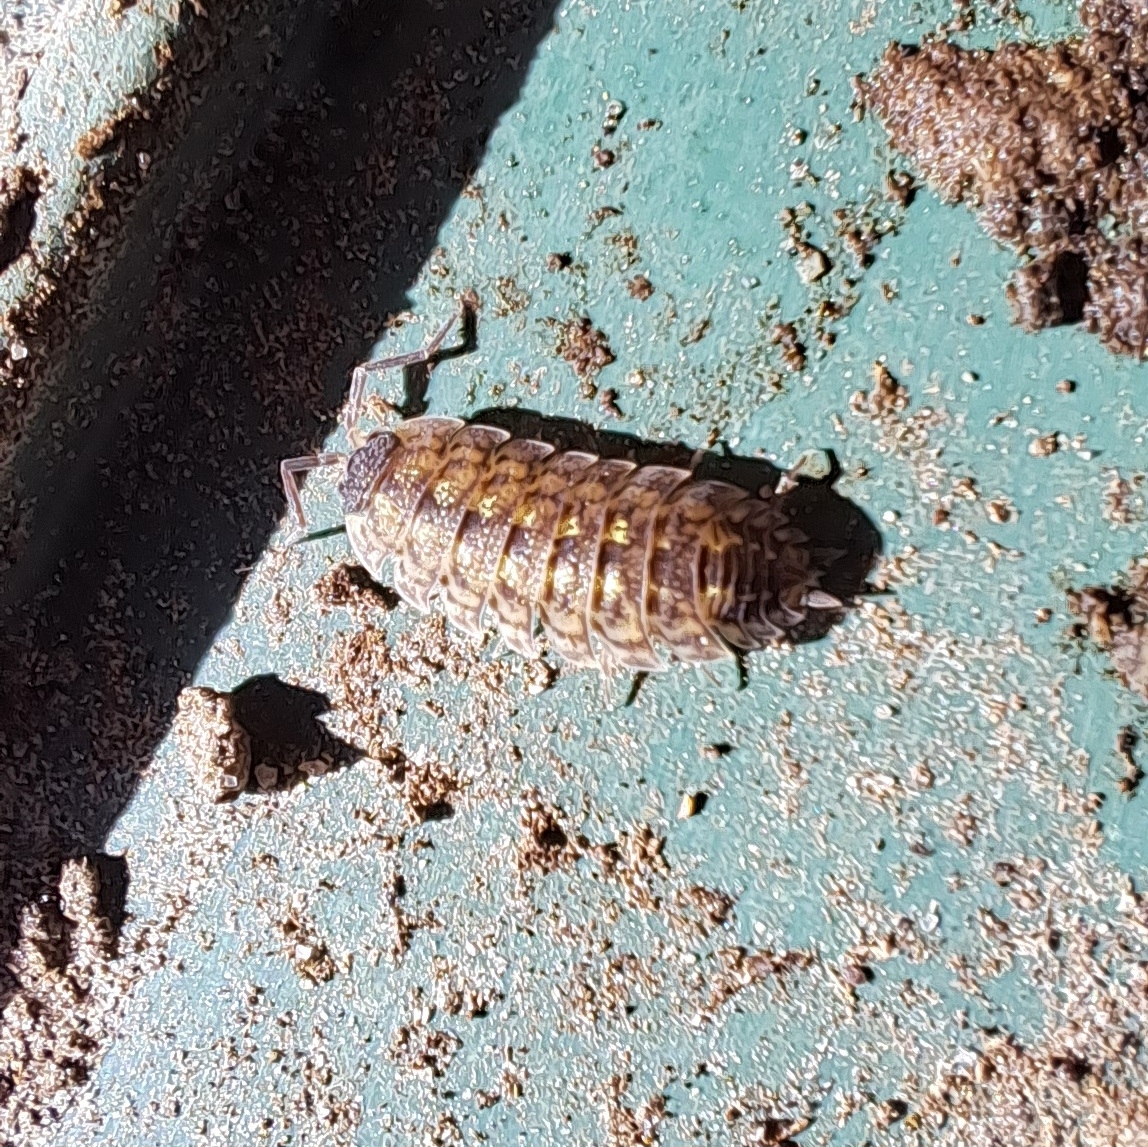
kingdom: Animalia
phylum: Arthropoda
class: Malacostraca
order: Isopoda
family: Porcellionidae
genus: Porcellio
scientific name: Porcellio spinicornis
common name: Painted woodlouse
